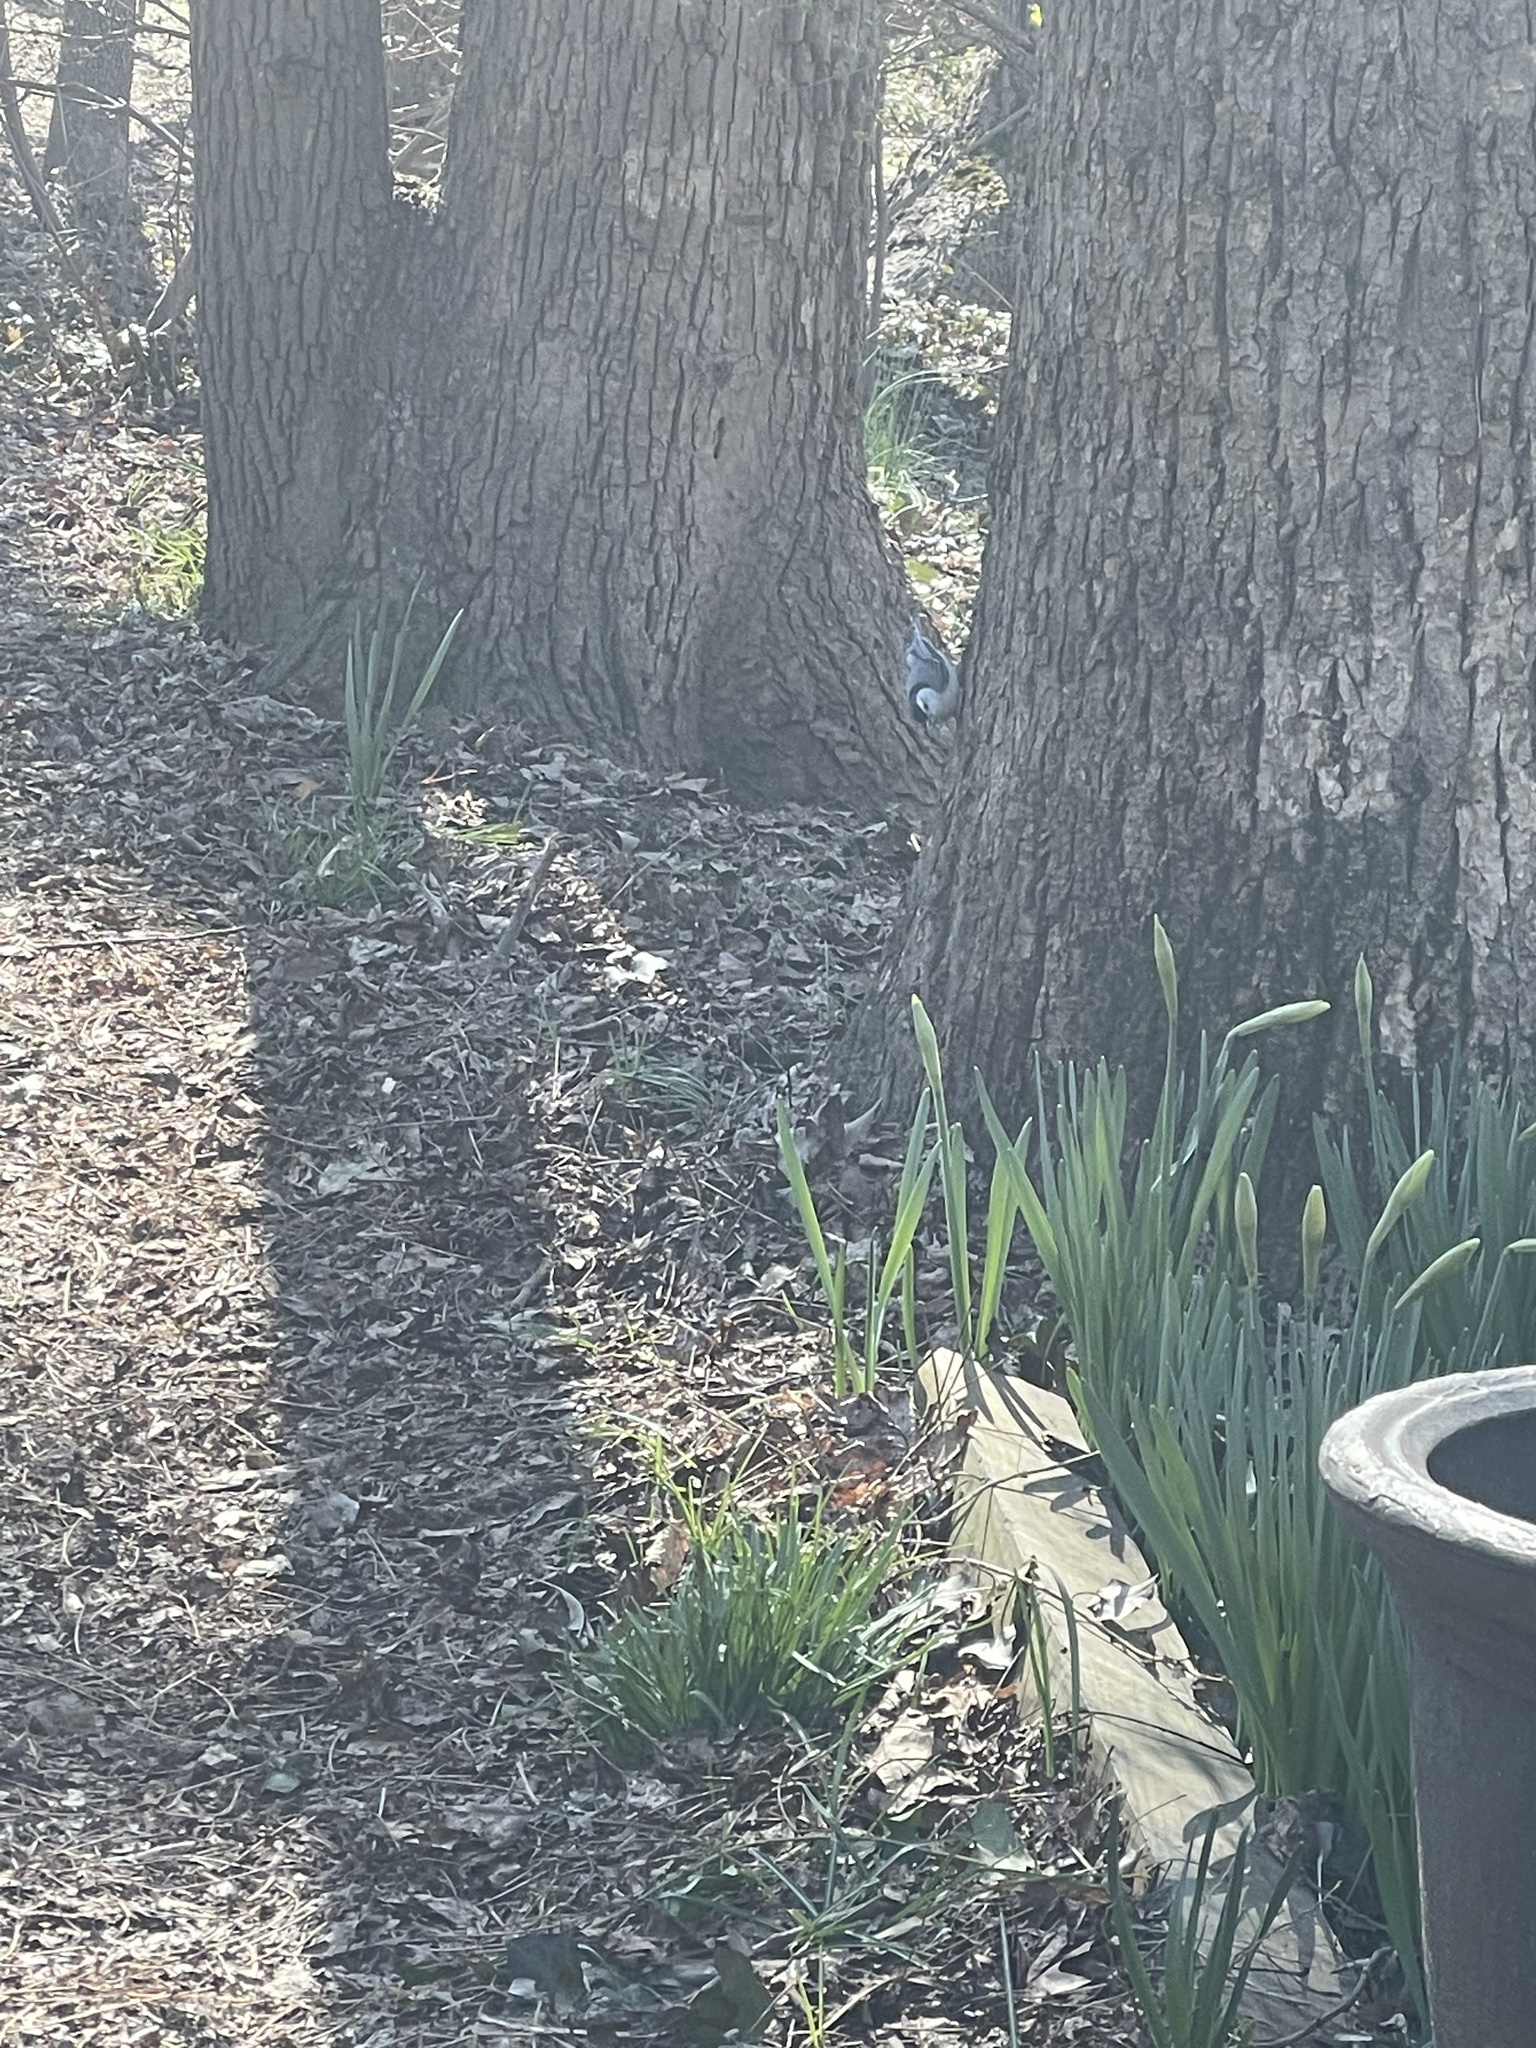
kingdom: Animalia
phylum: Chordata
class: Aves
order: Passeriformes
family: Sittidae
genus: Sitta
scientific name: Sitta carolinensis
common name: White-breasted nuthatch
